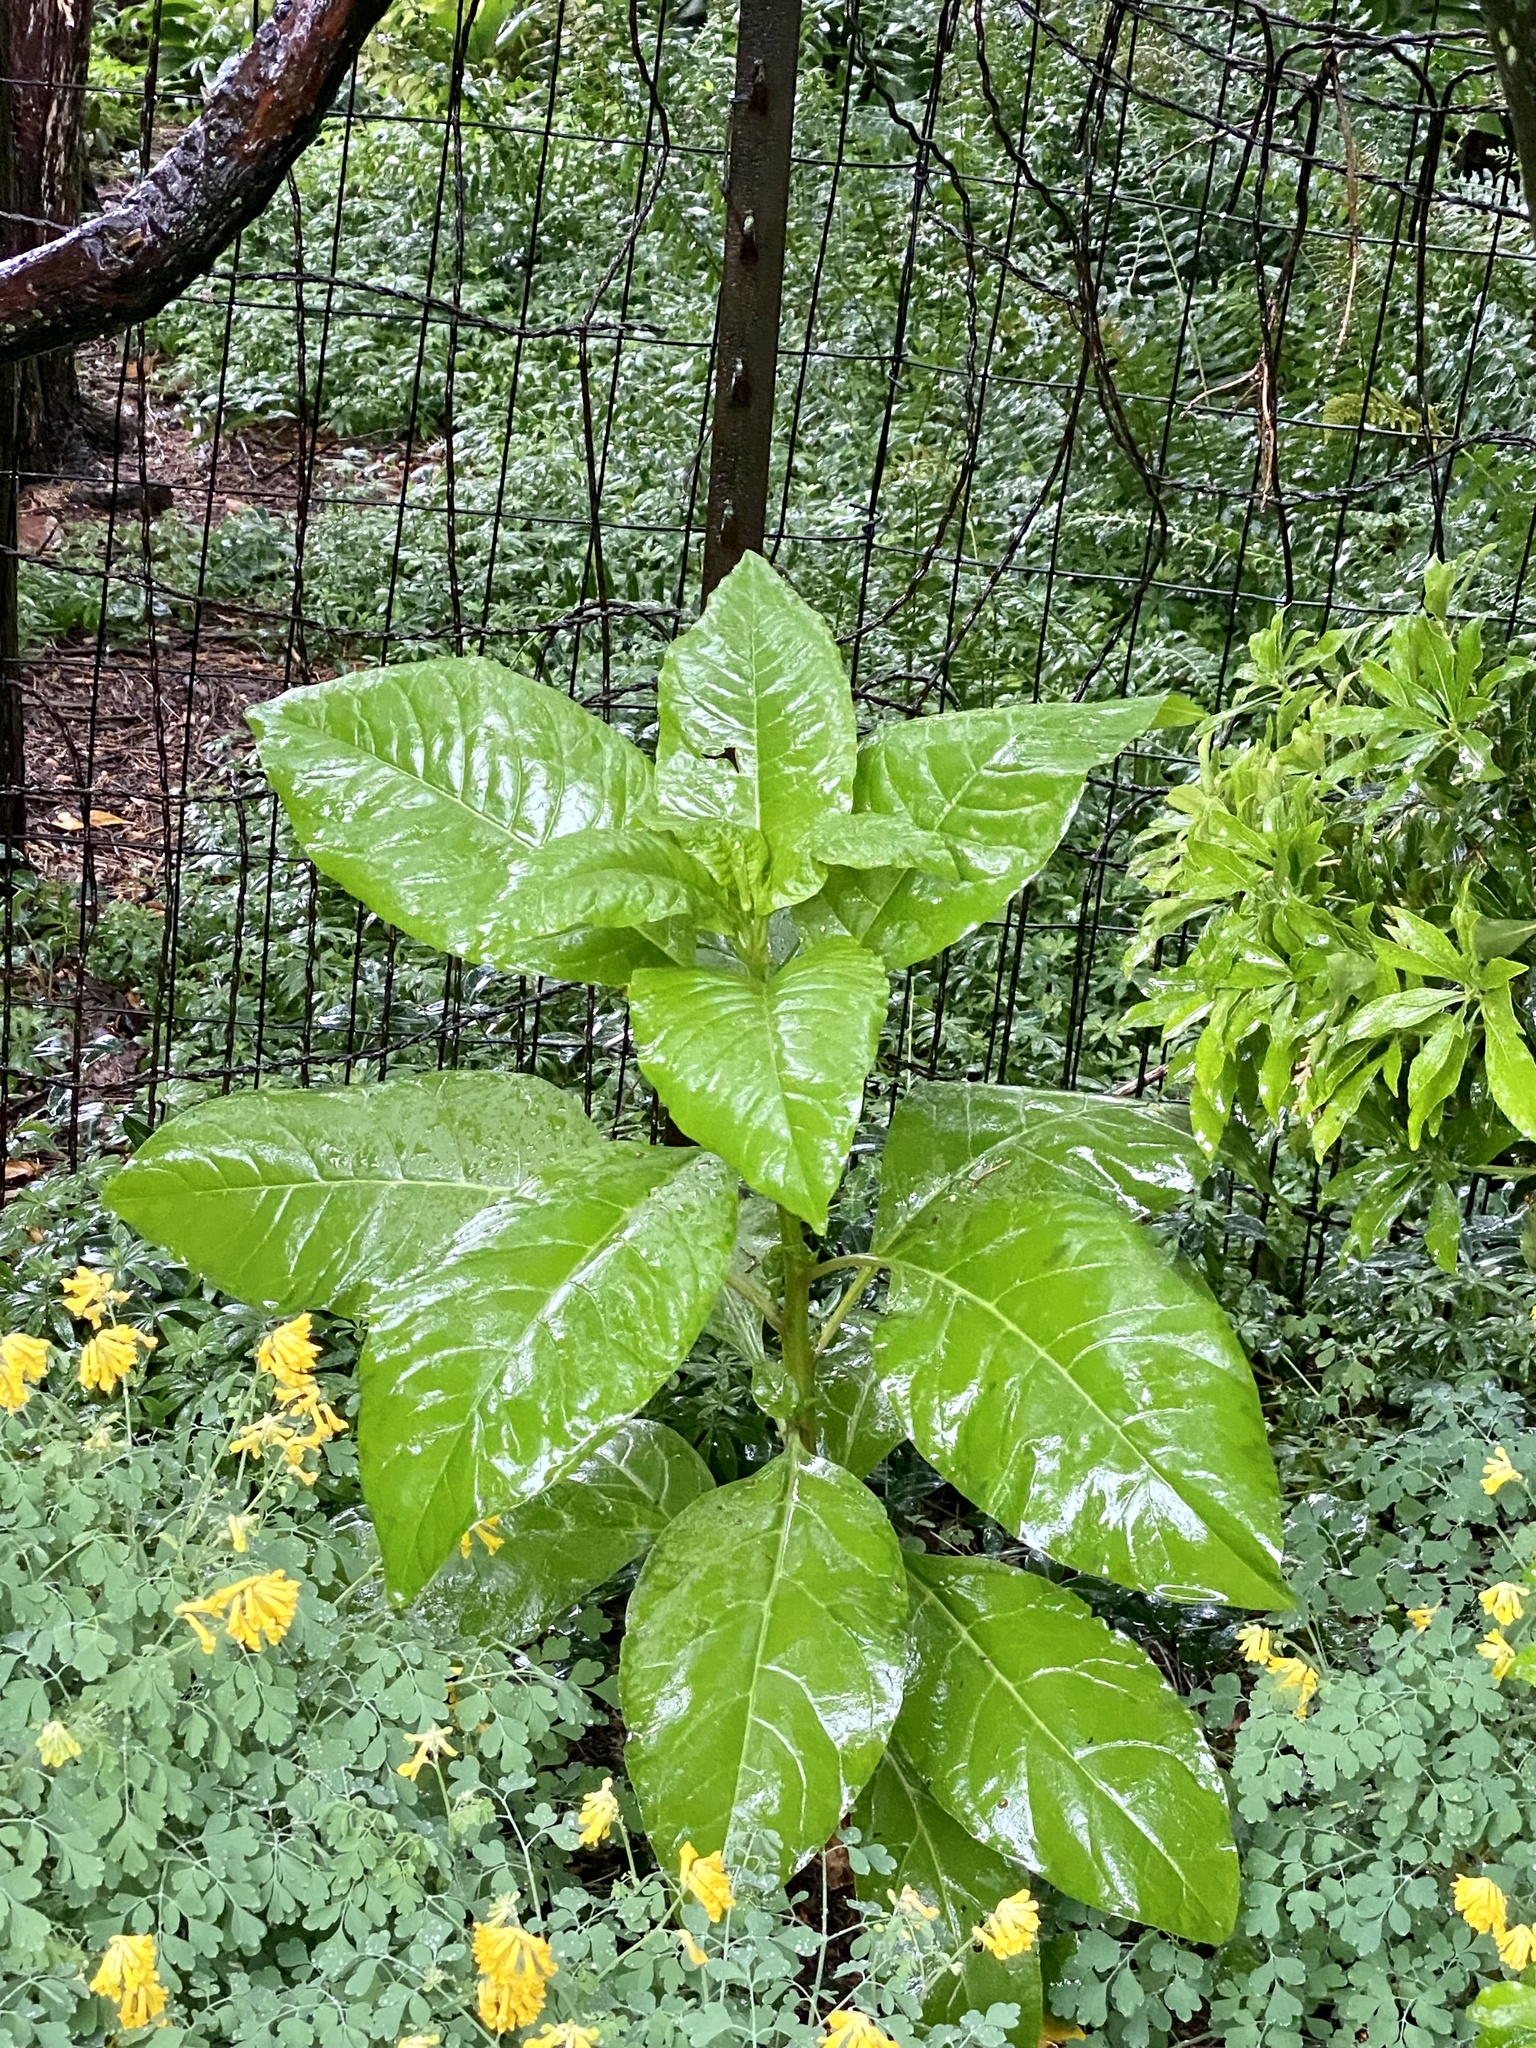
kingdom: Plantae
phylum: Tracheophyta
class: Magnoliopsida
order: Caryophyllales
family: Phytolaccaceae
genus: Phytolacca
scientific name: Phytolacca americana
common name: American pokeweed
